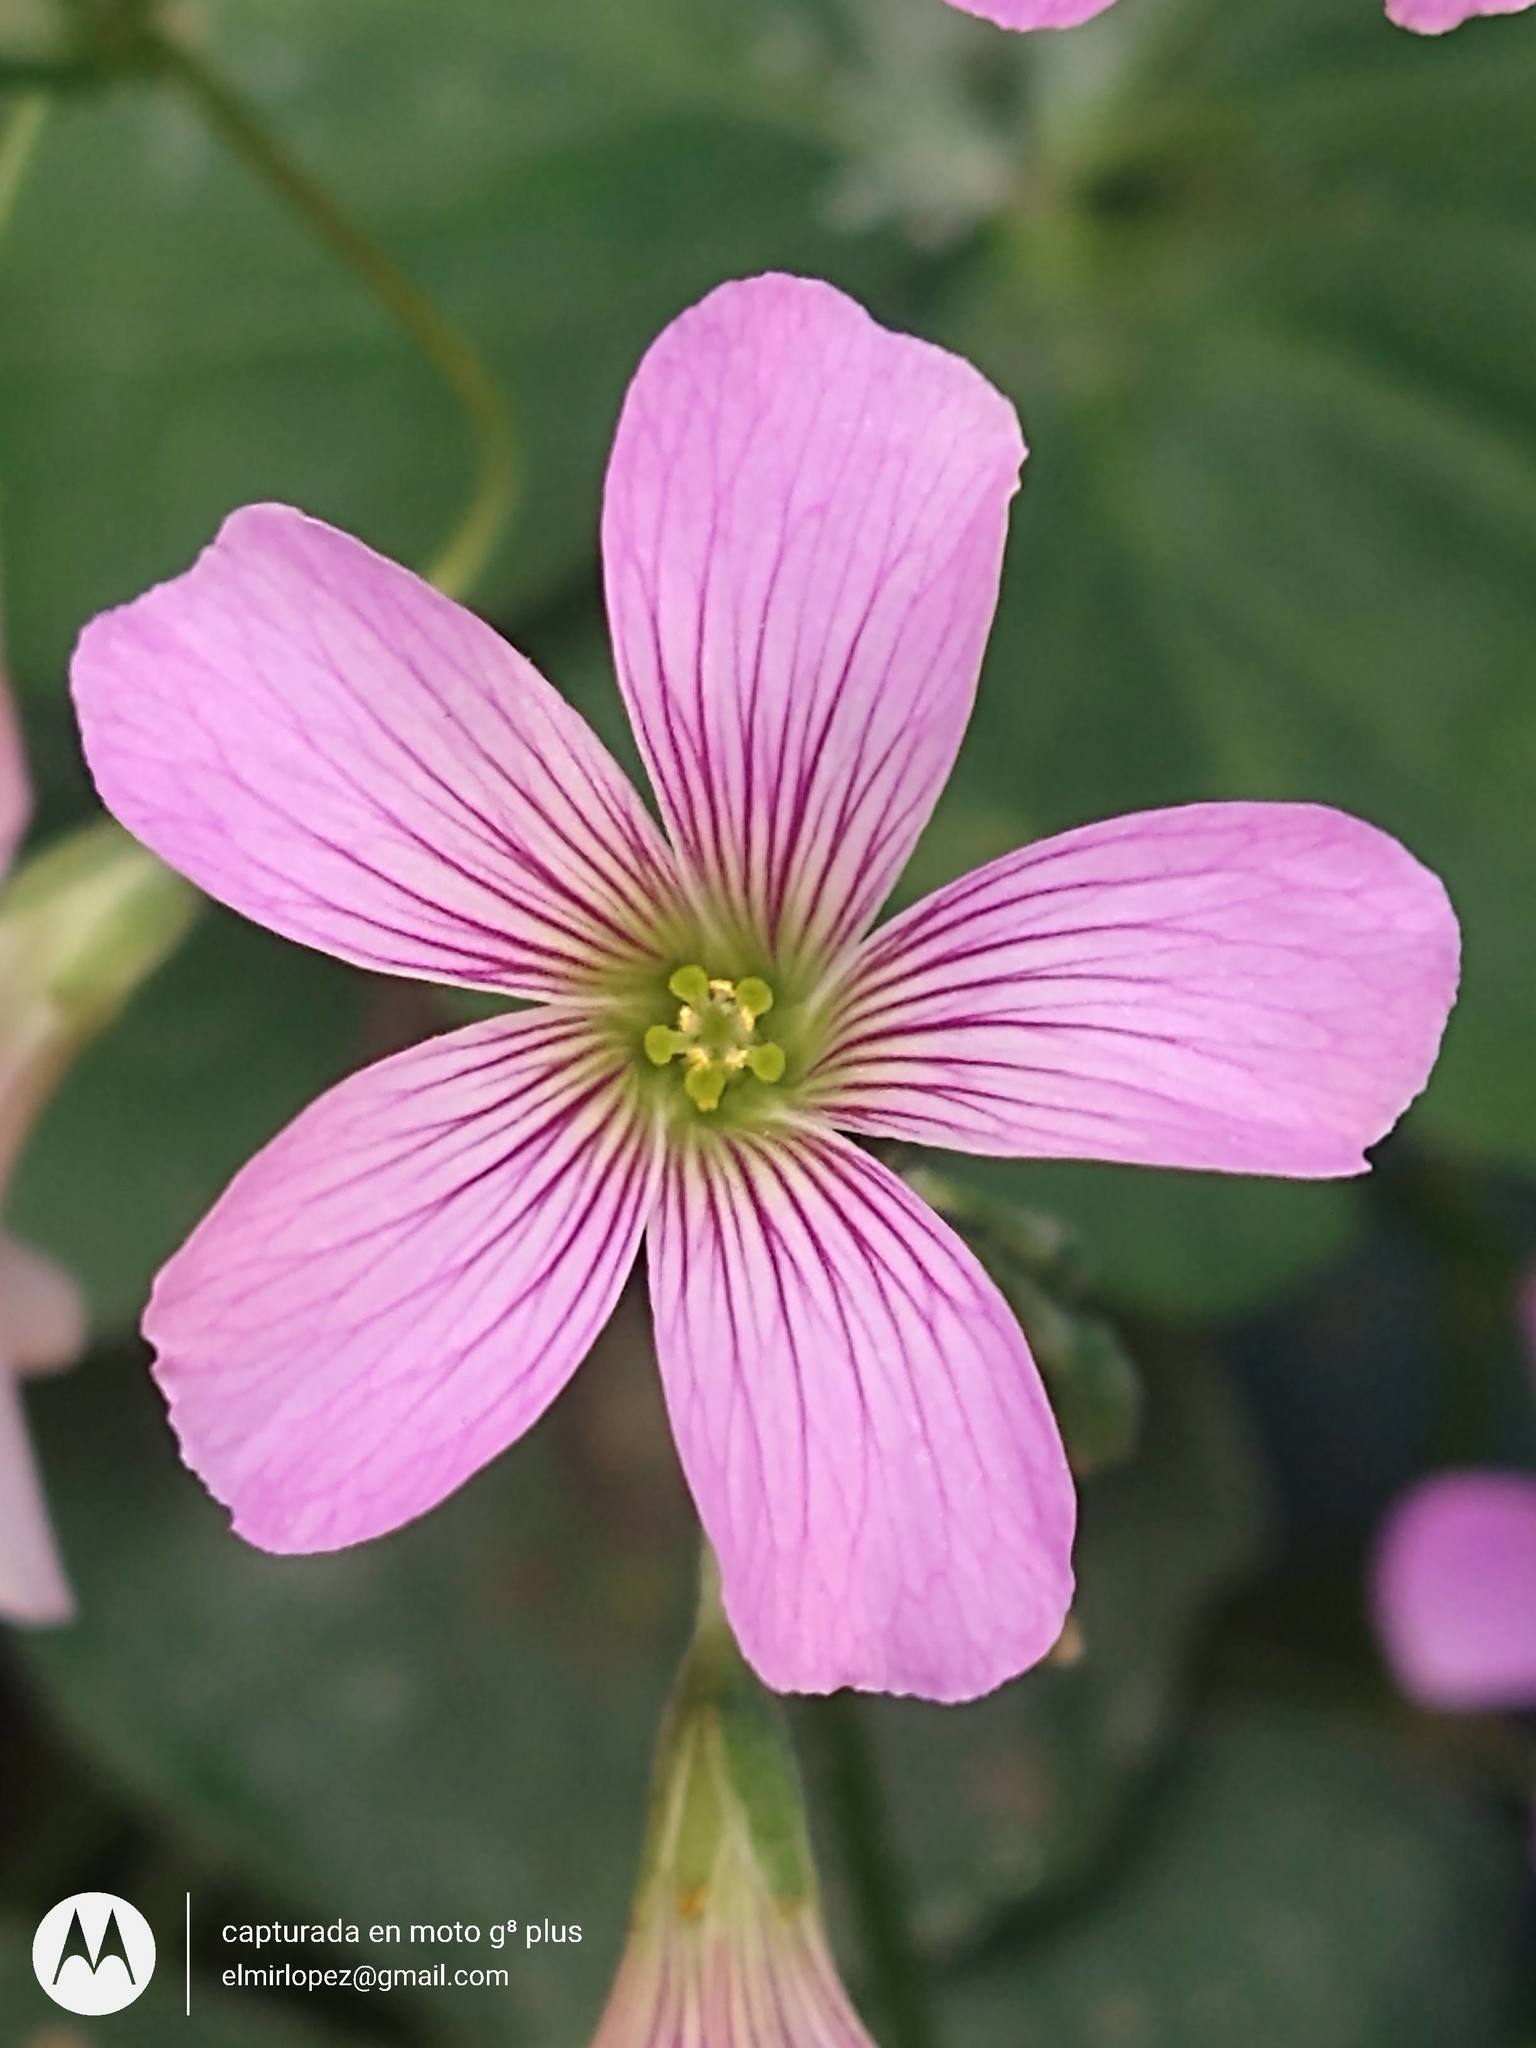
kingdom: Plantae
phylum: Tracheophyta
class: Magnoliopsida
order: Oxalidales
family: Oxalidaceae
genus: Oxalis
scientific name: Oxalis debilis
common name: Large-flowered pink-sorrel
